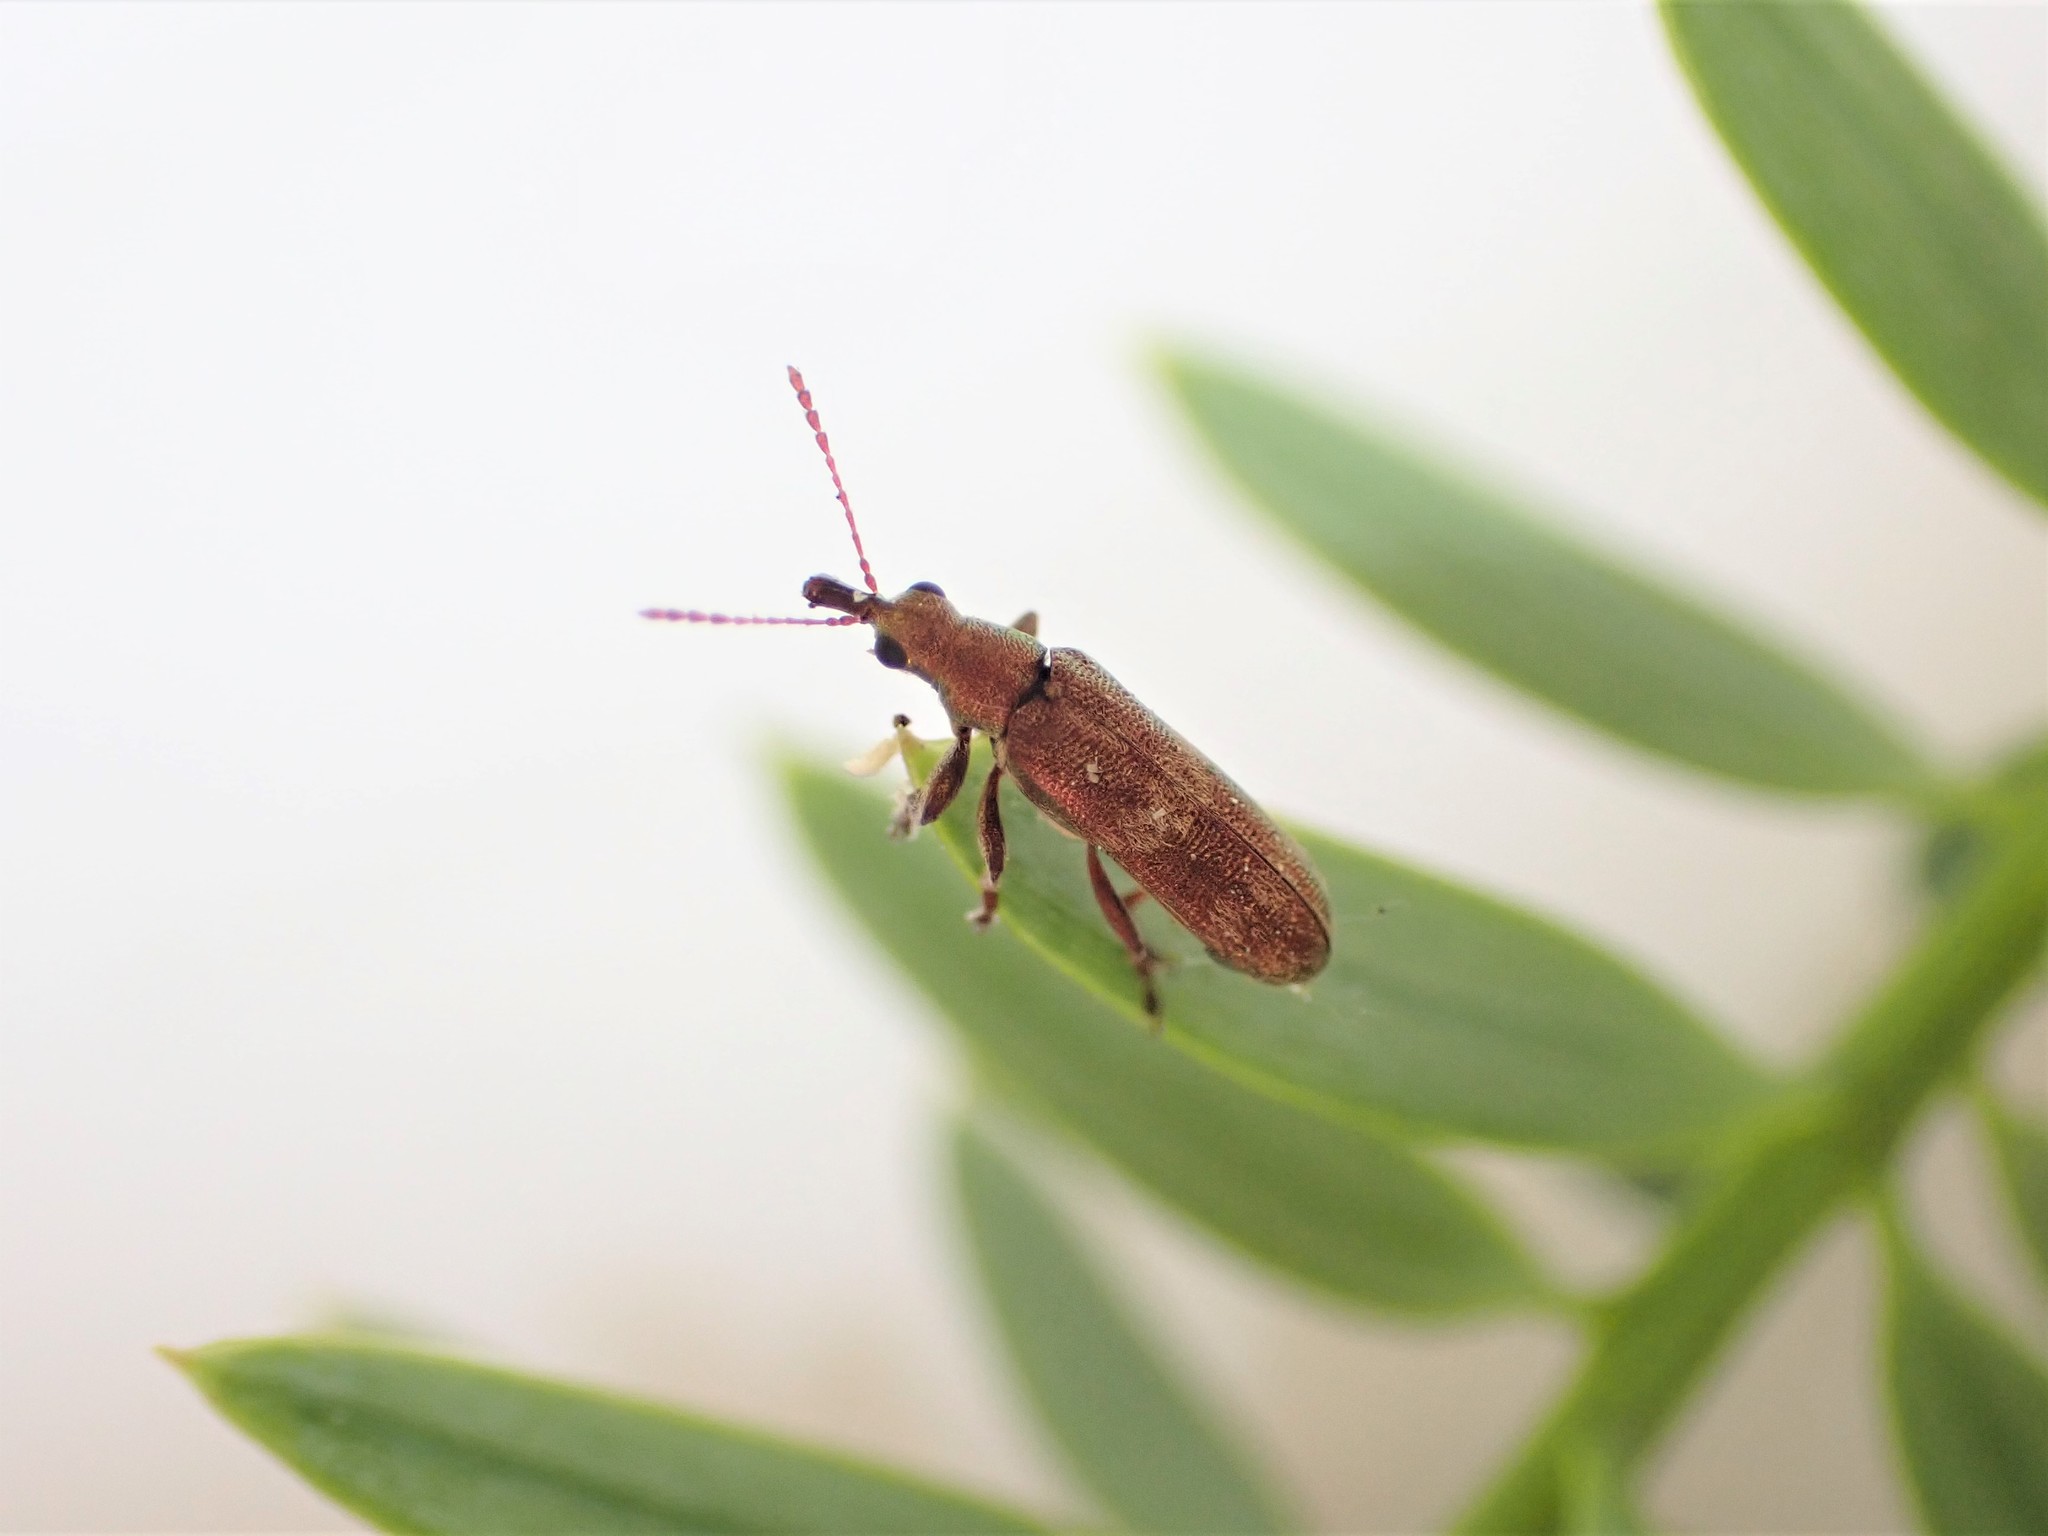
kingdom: Animalia
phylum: Arthropoda
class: Insecta
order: Coleoptera
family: Belidae
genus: Rhicnobelus
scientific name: Rhicnobelus
